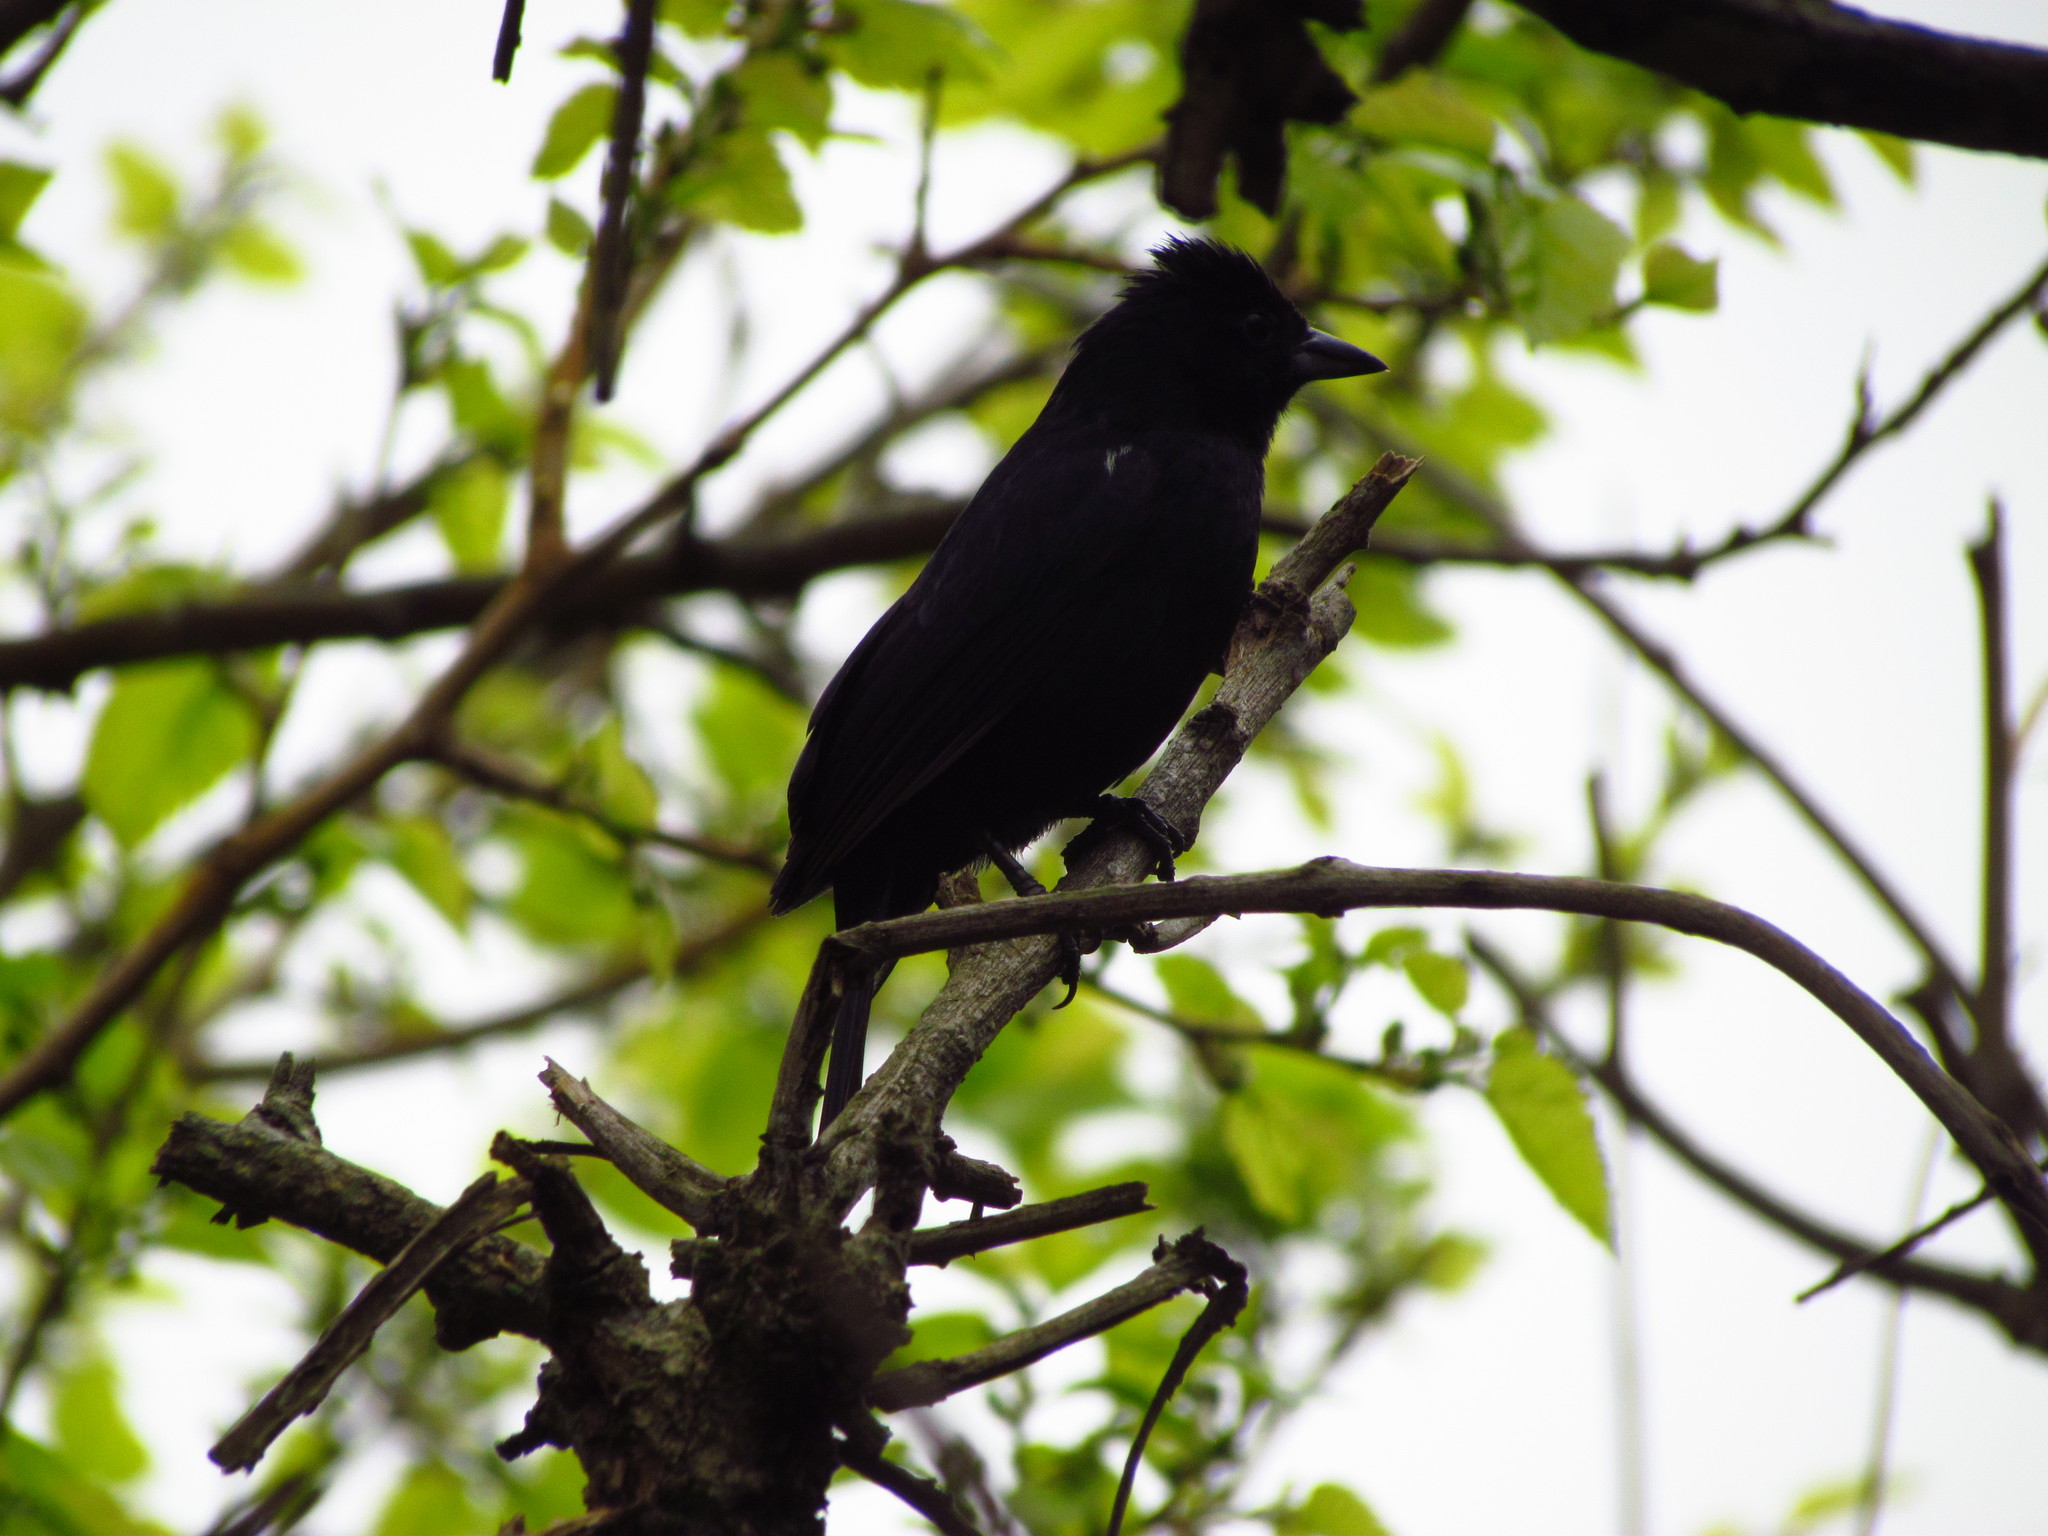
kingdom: Animalia
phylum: Chordata
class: Aves
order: Passeriformes
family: Thraupidae
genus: Tachyphonus
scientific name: Tachyphonus rufus
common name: White-lined tanager
